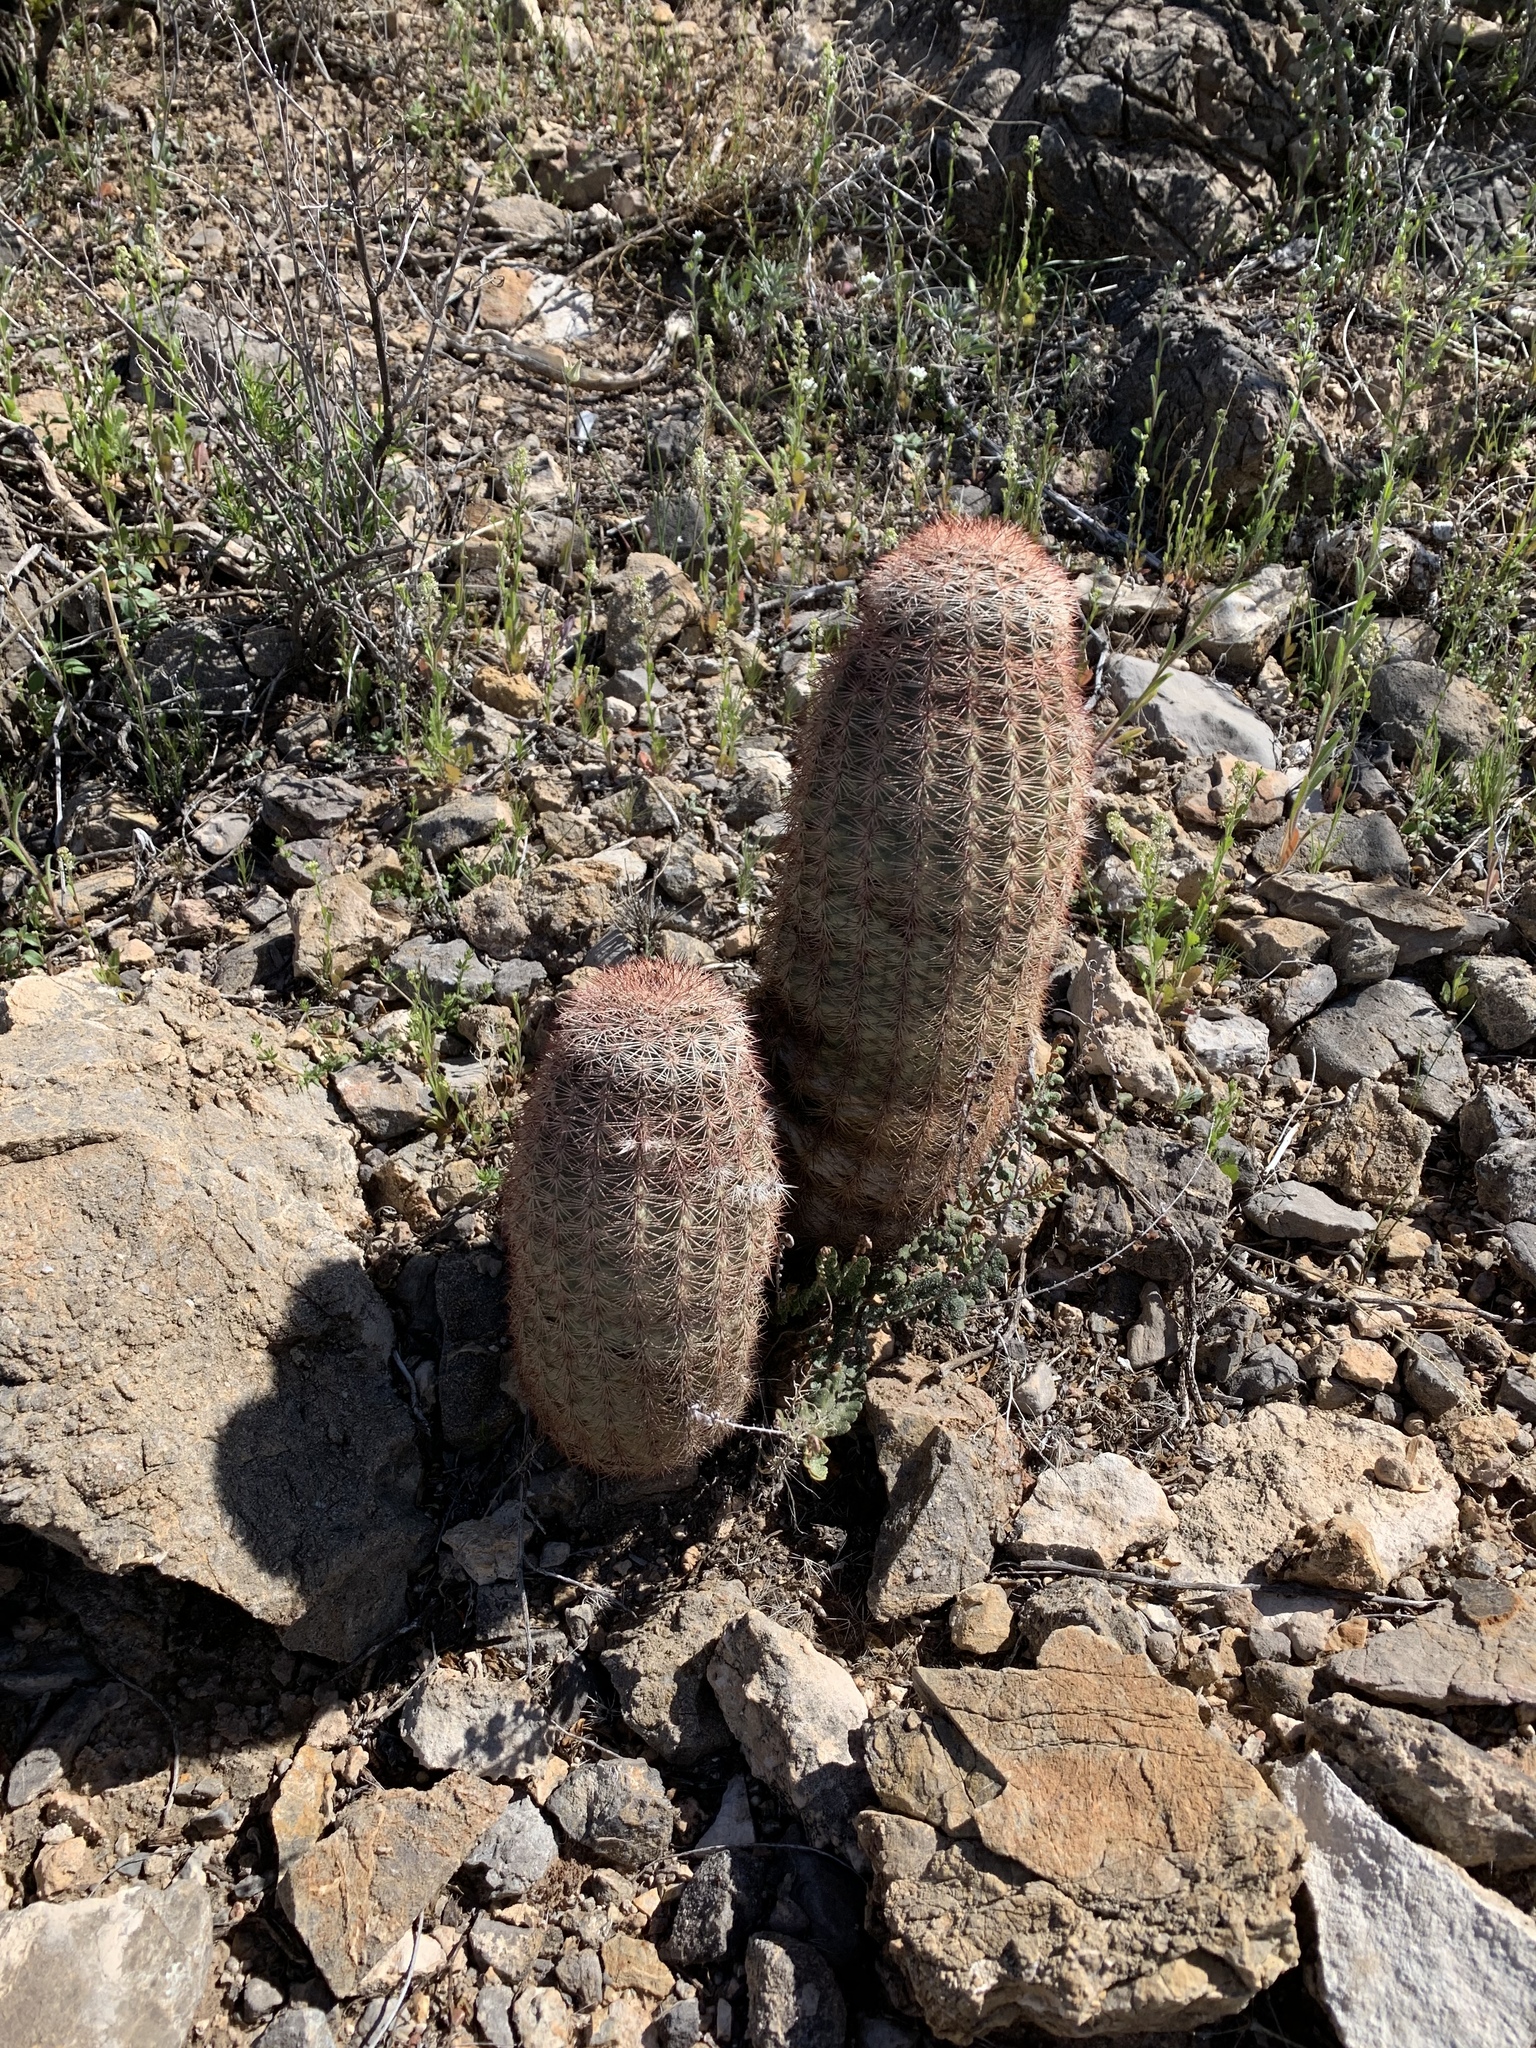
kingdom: Plantae
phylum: Tracheophyta
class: Magnoliopsida
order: Caryophyllales
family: Cactaceae
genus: Echinocereus
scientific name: Echinocereus dasyacanthus
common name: Spiny hedgehog cactus
